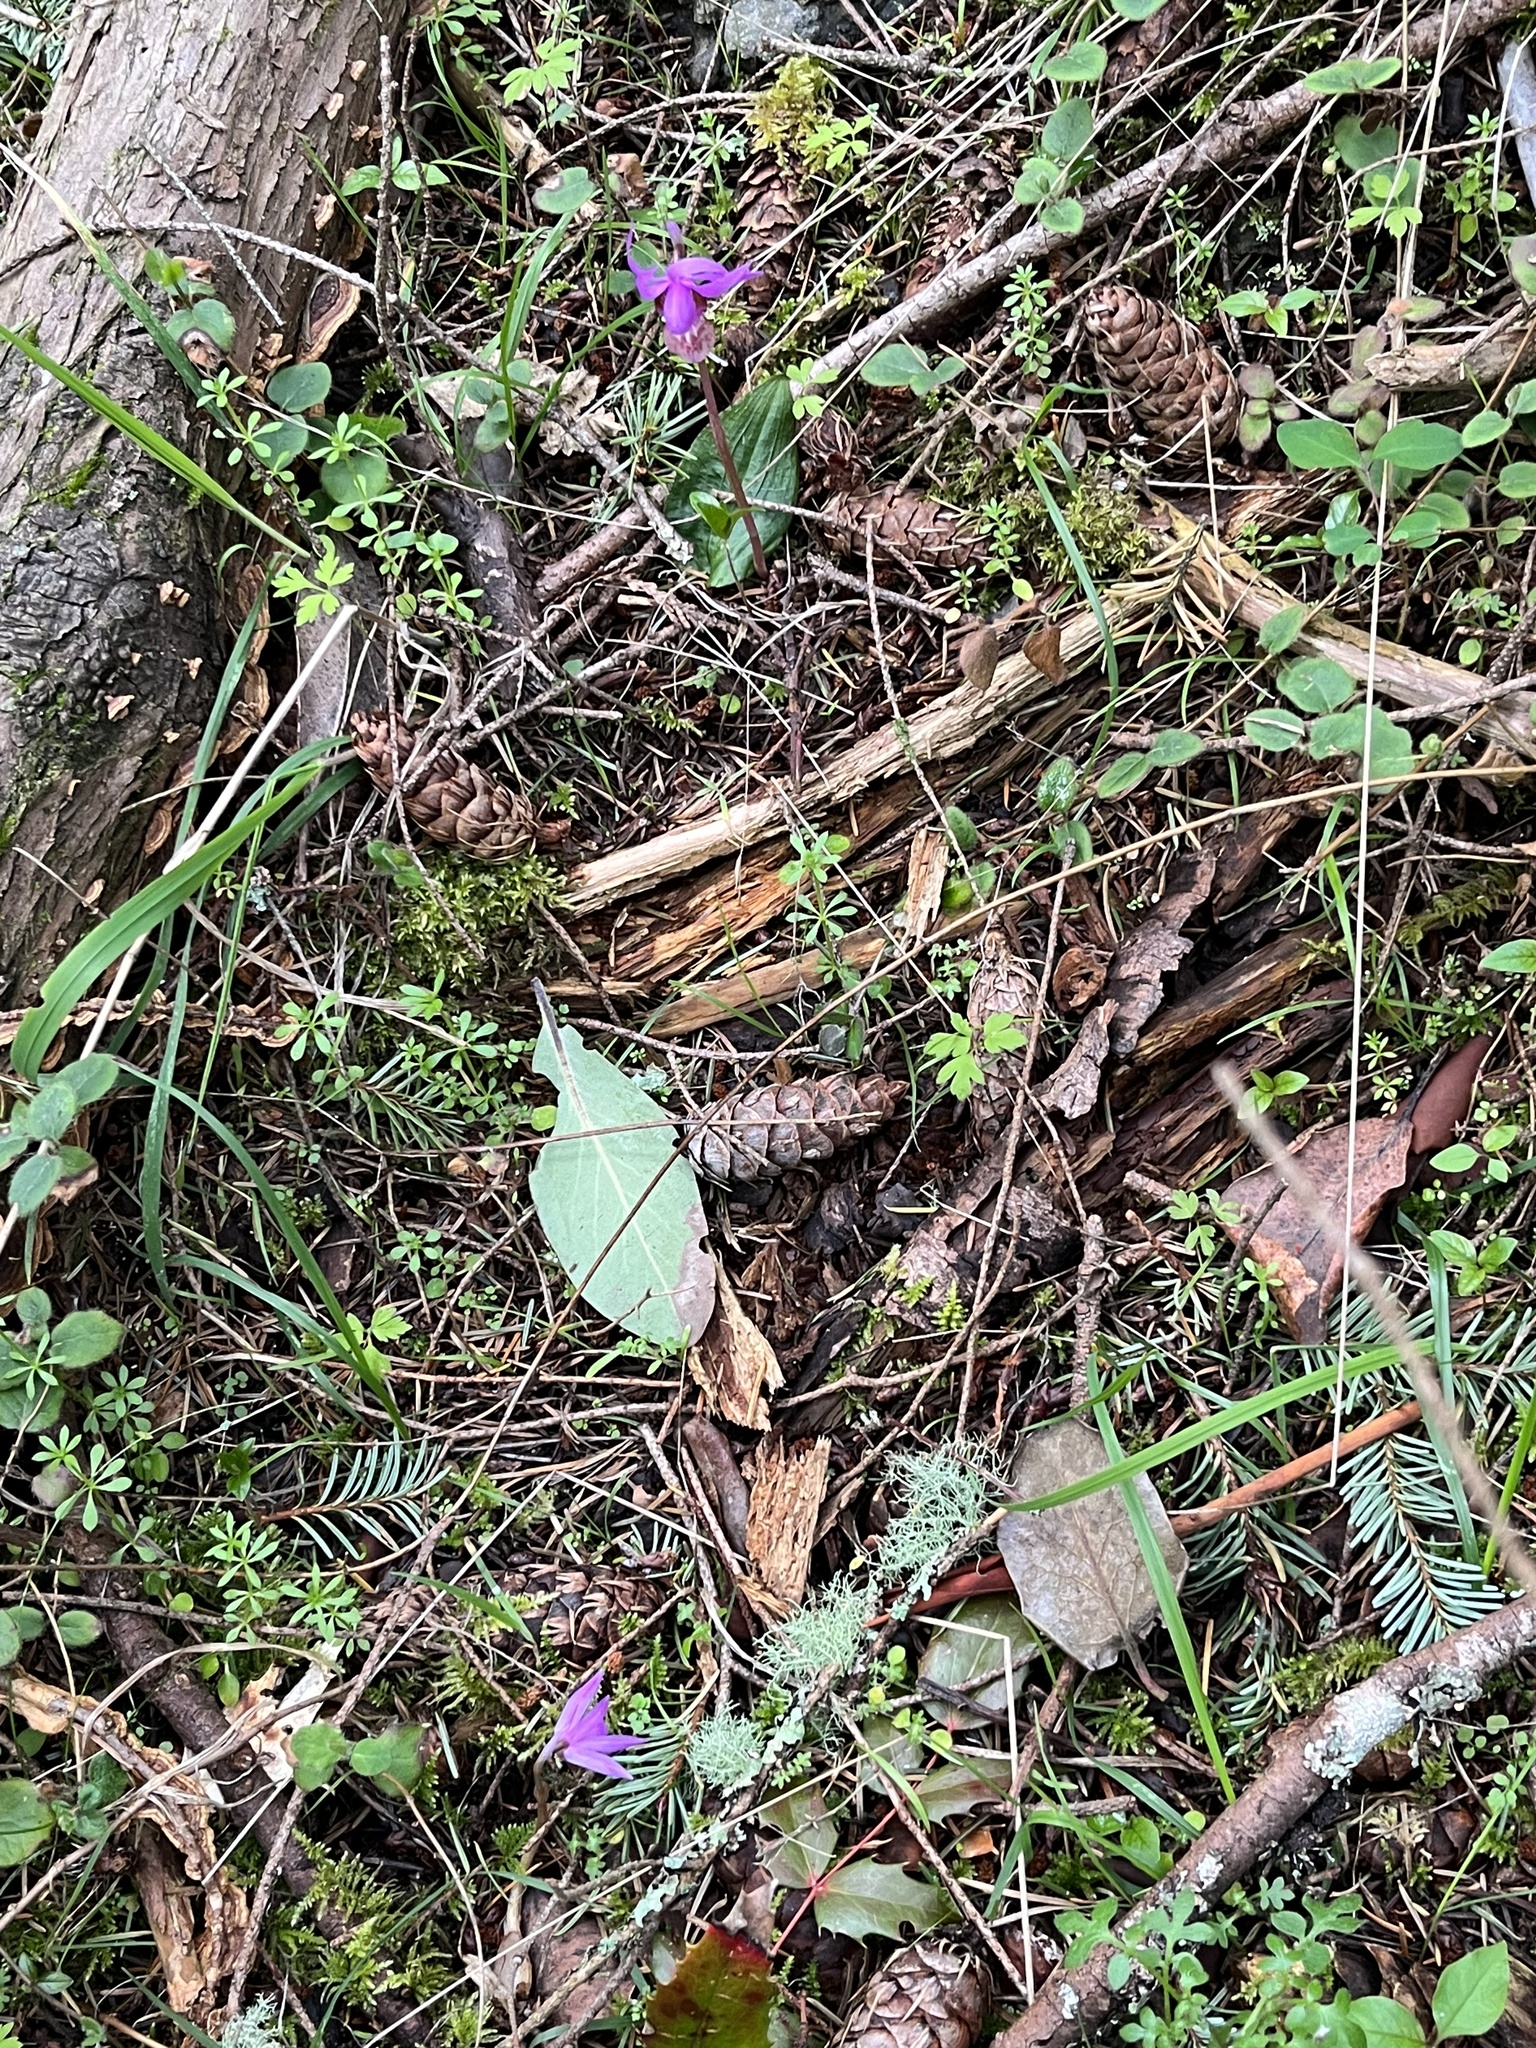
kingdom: Plantae
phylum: Tracheophyta
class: Liliopsida
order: Asparagales
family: Orchidaceae
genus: Calypso
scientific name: Calypso bulbosa
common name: Calypso
